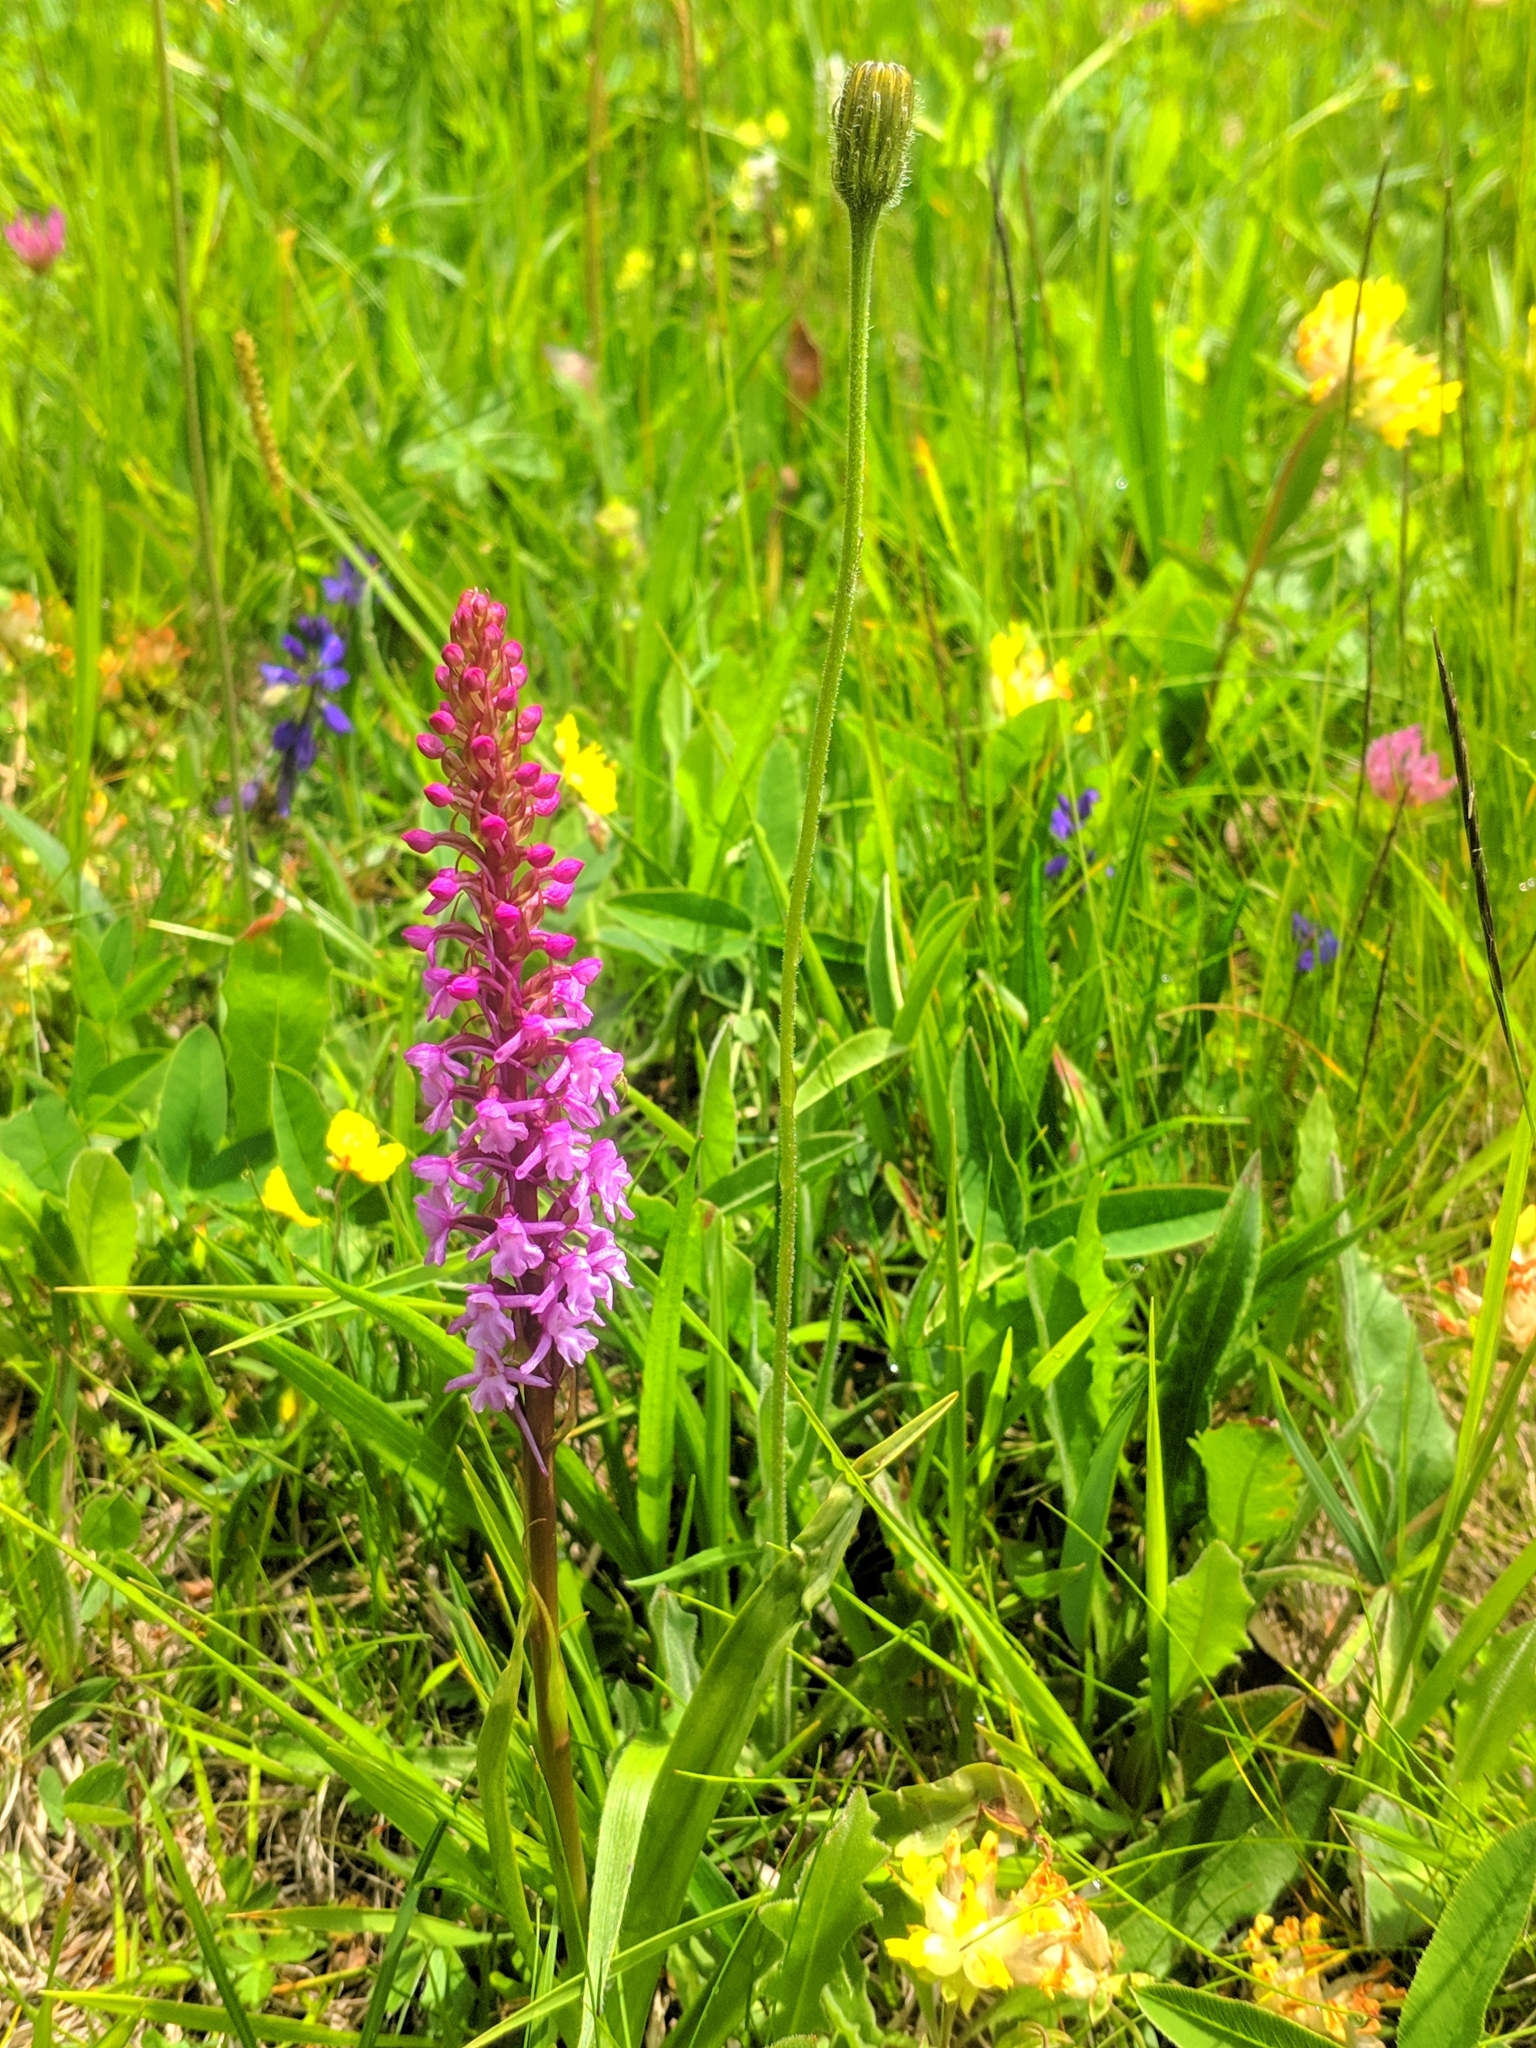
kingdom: Plantae
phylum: Tracheophyta
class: Liliopsida
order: Asparagales
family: Orchidaceae
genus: Gymnadenia
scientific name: Gymnadenia conopsea
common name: Fragrant orchid
